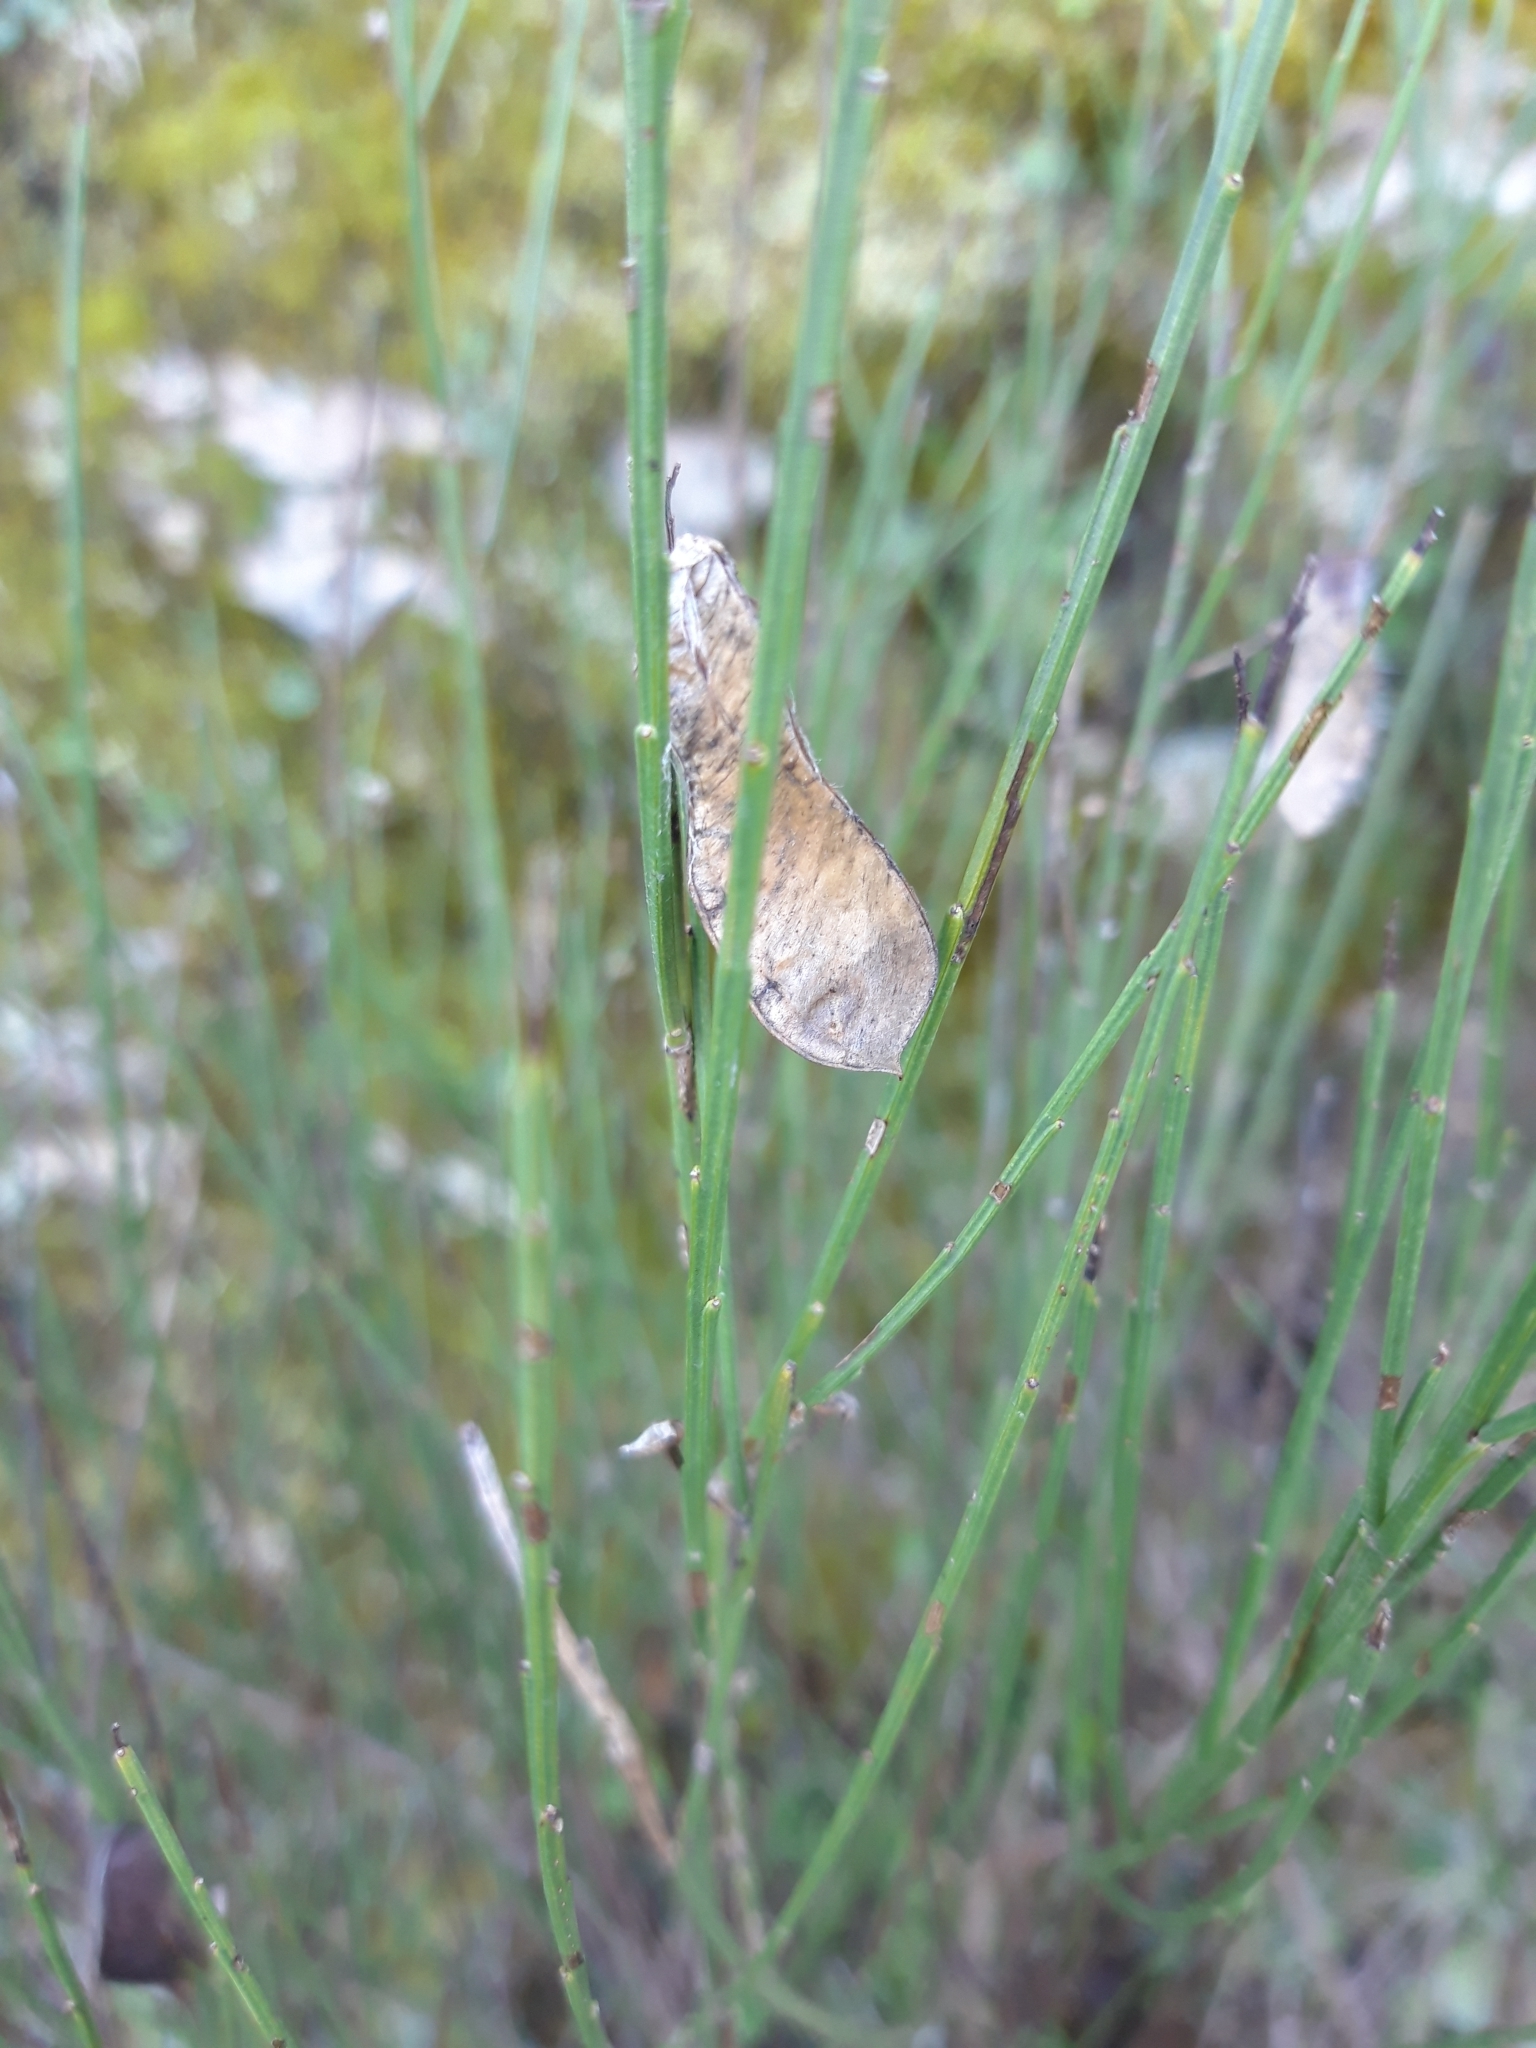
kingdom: Plantae
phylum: Tracheophyta
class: Magnoliopsida
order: Fabales
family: Fabaceae
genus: Cytisus
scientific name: Cytisus scoparius
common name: Scotch broom
